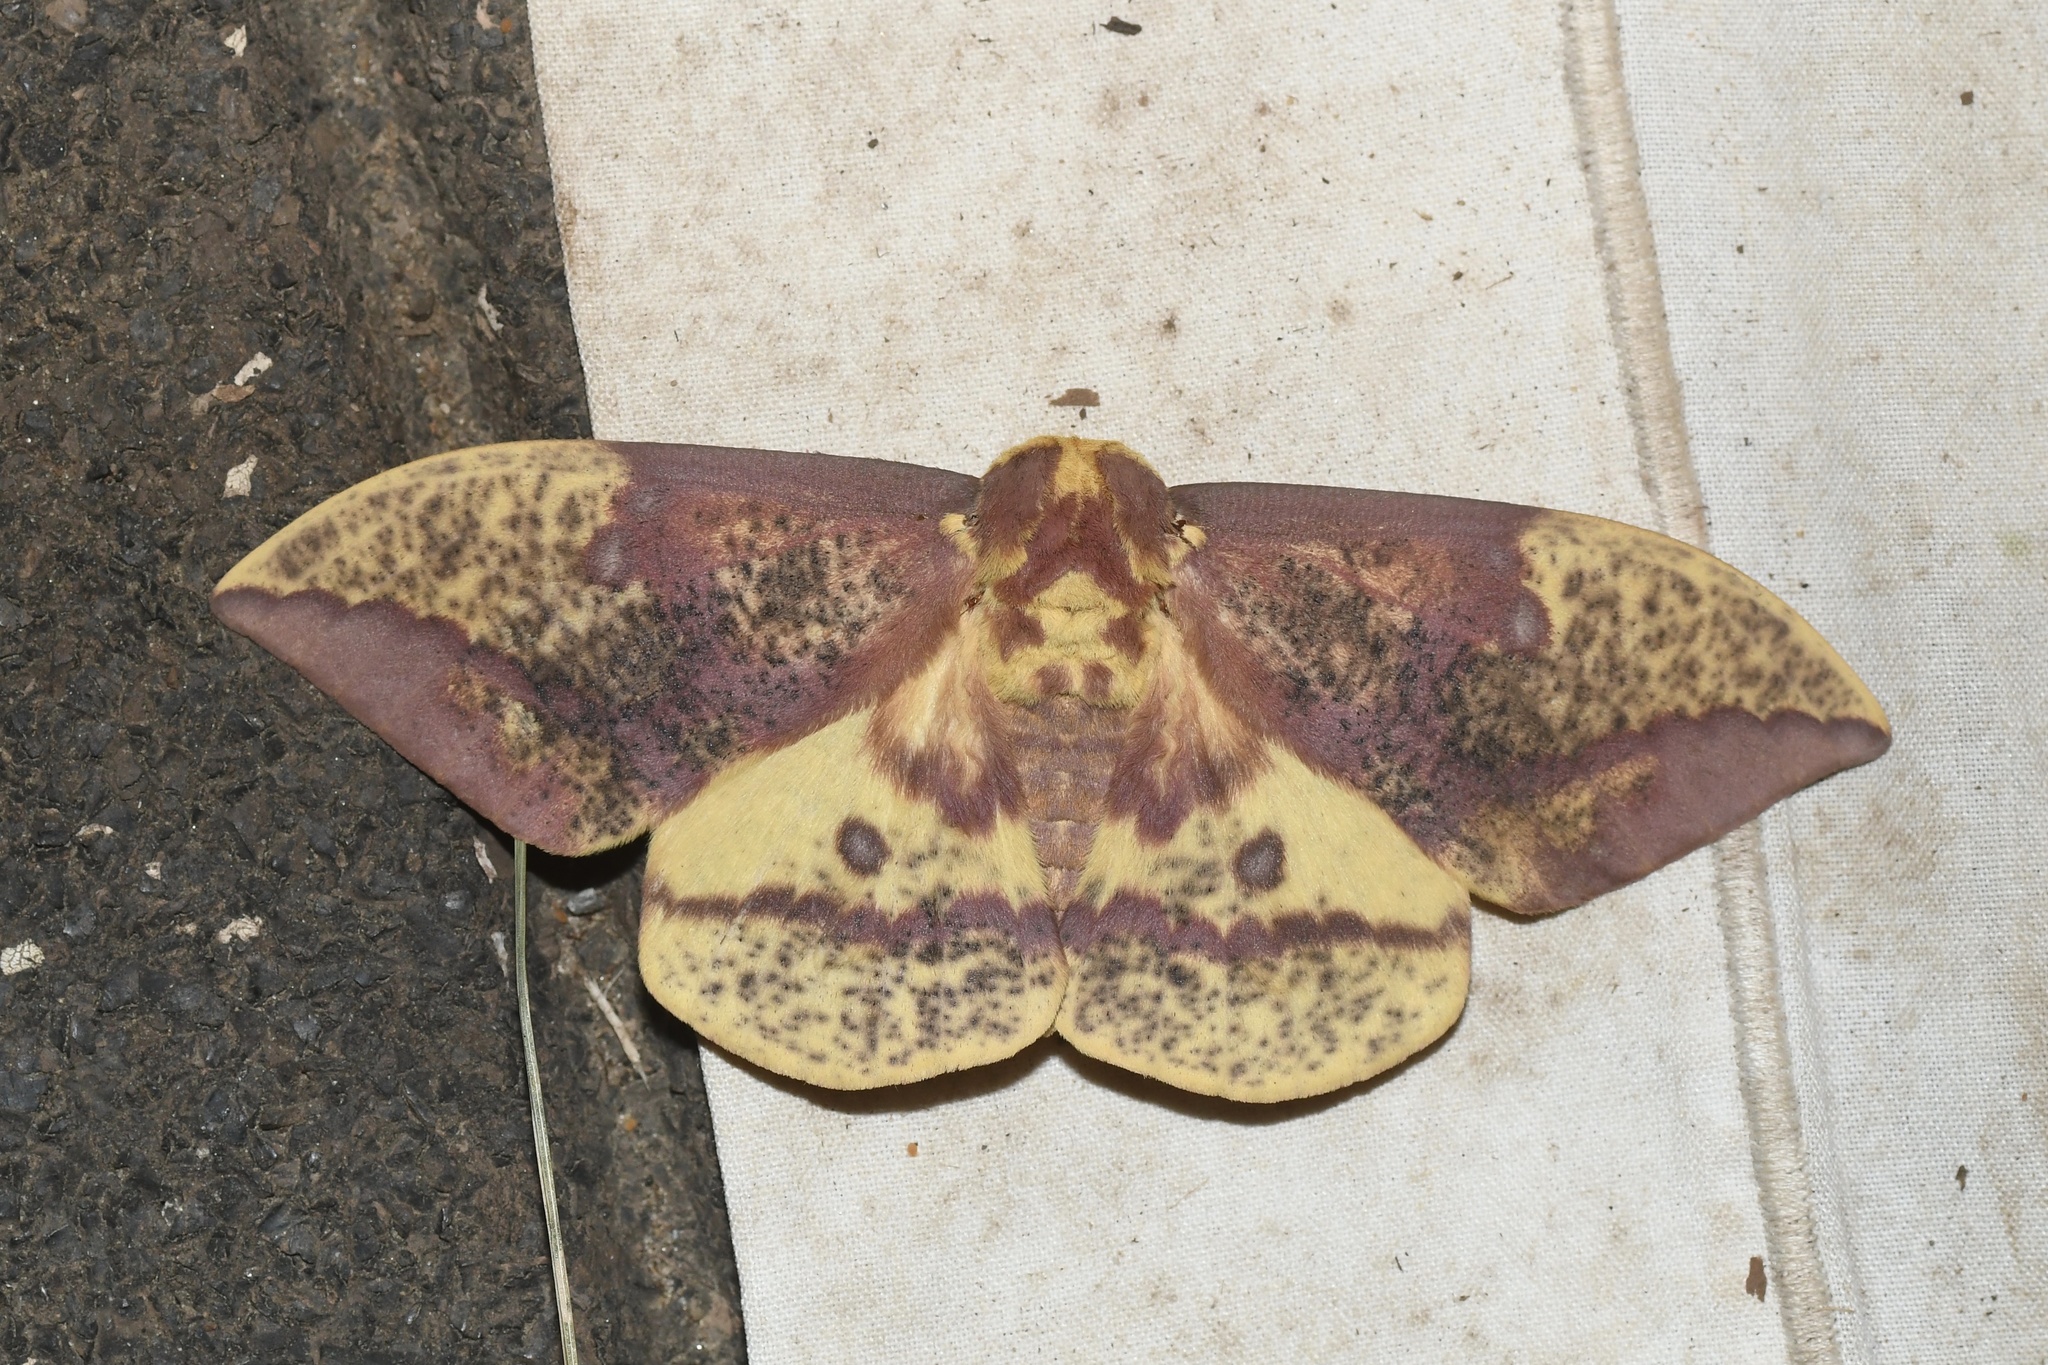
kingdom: Animalia
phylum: Arthropoda
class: Insecta
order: Lepidoptera
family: Saturniidae
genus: Eacles
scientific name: Eacles
